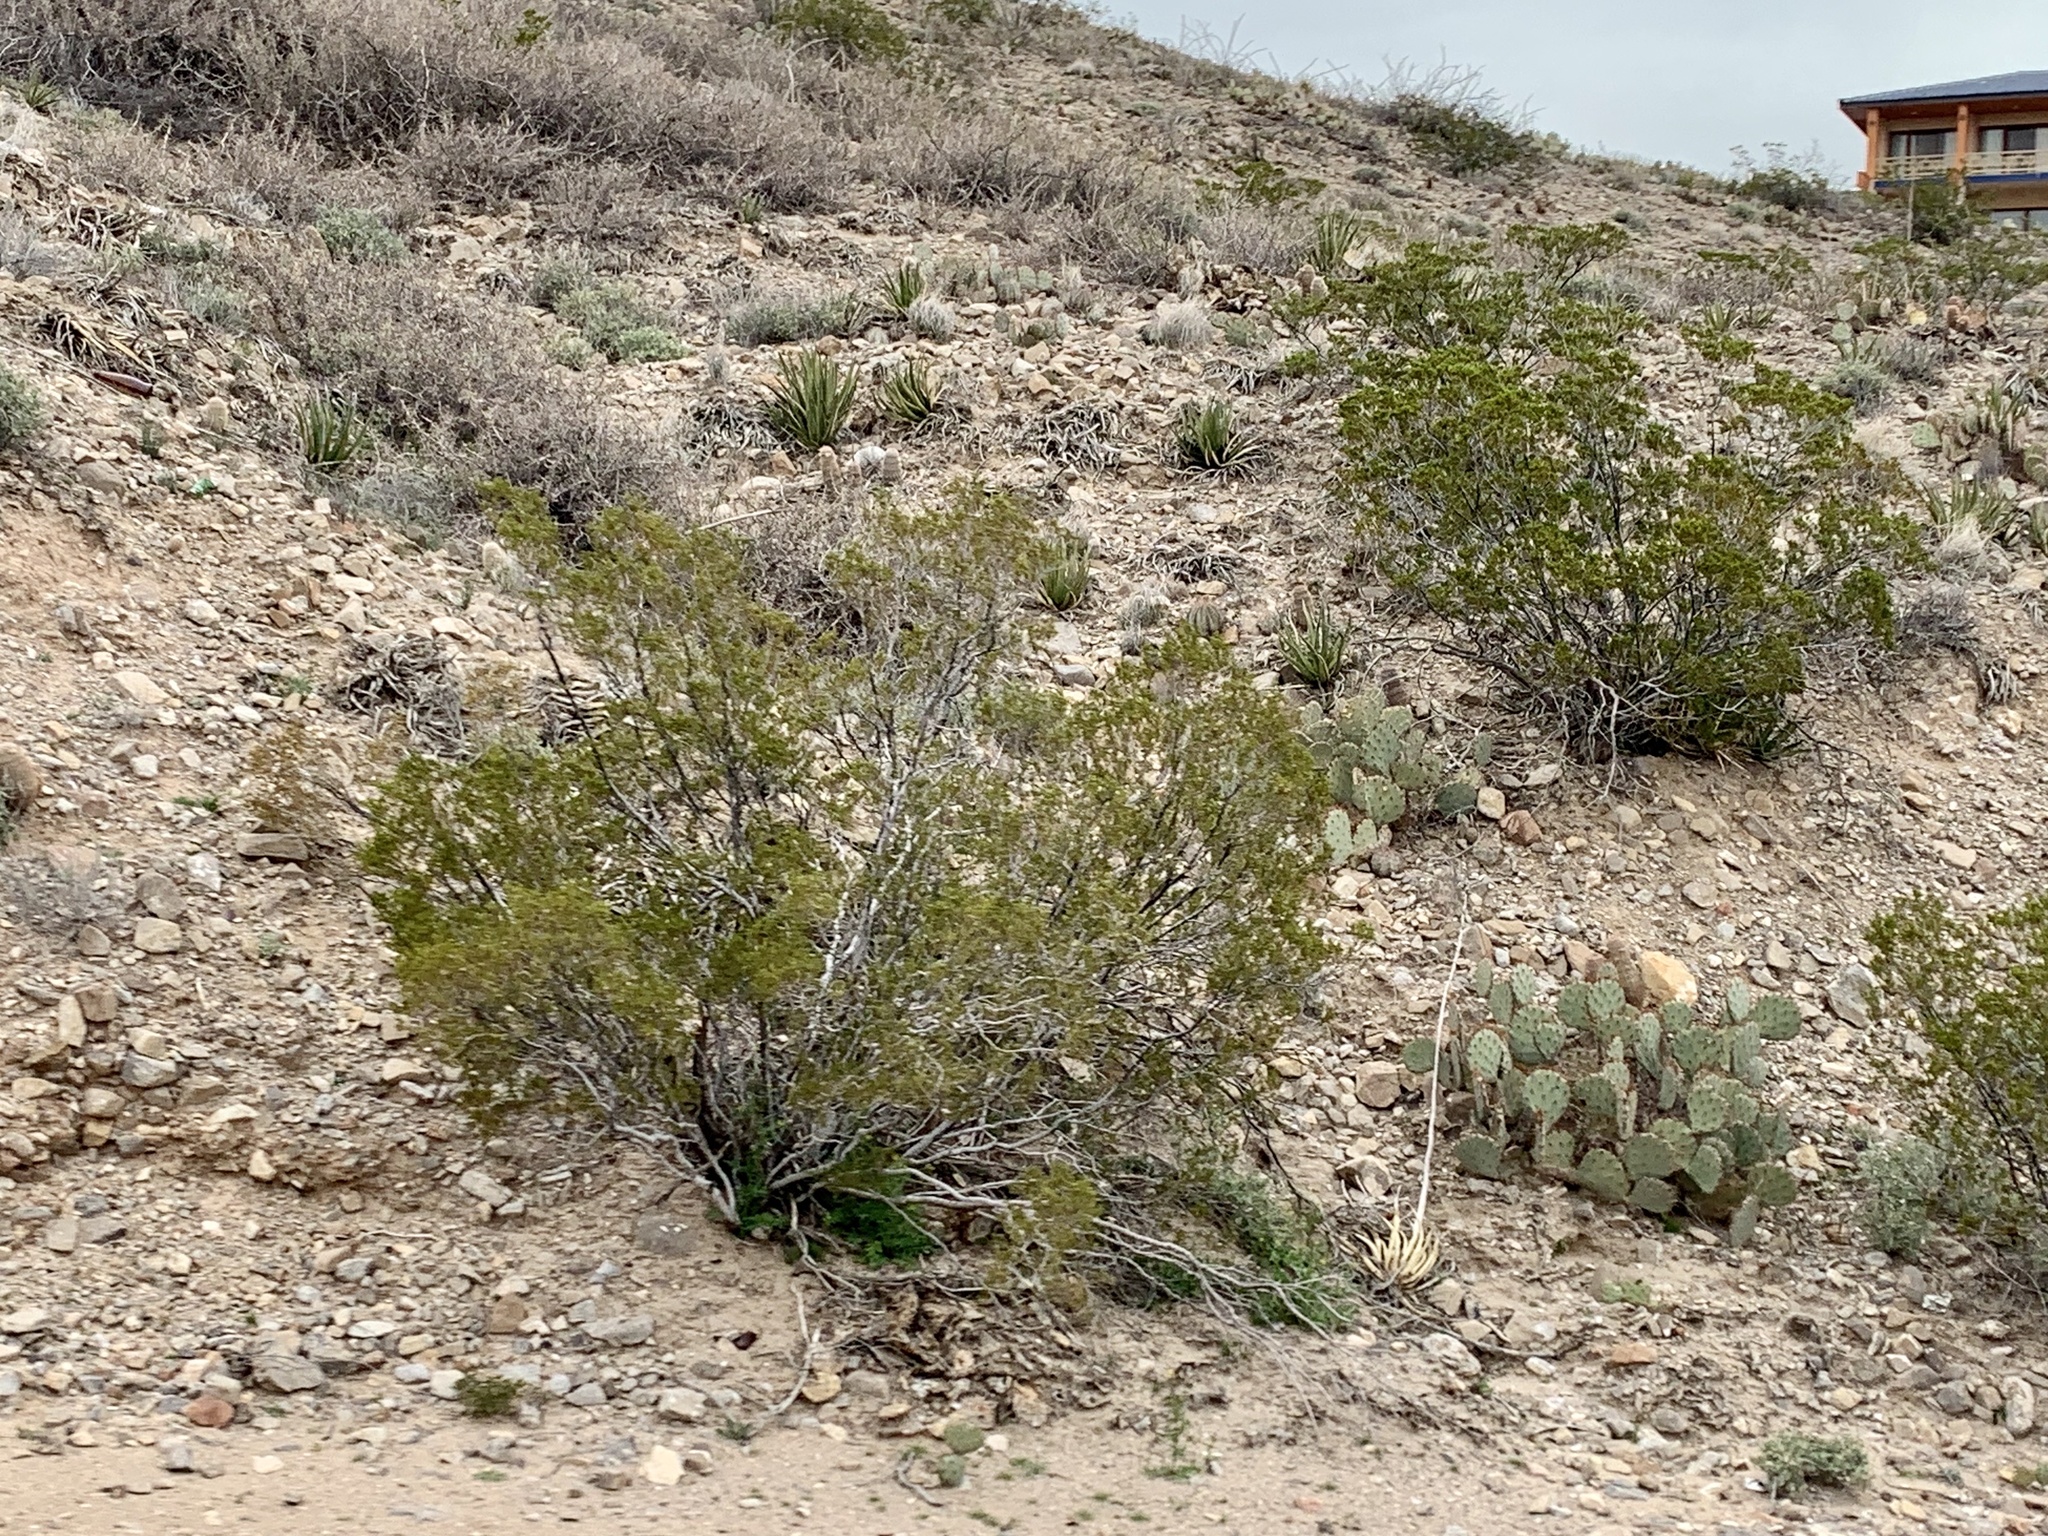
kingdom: Plantae
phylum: Tracheophyta
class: Magnoliopsida
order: Zygophyllales
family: Zygophyllaceae
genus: Larrea
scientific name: Larrea tridentata
